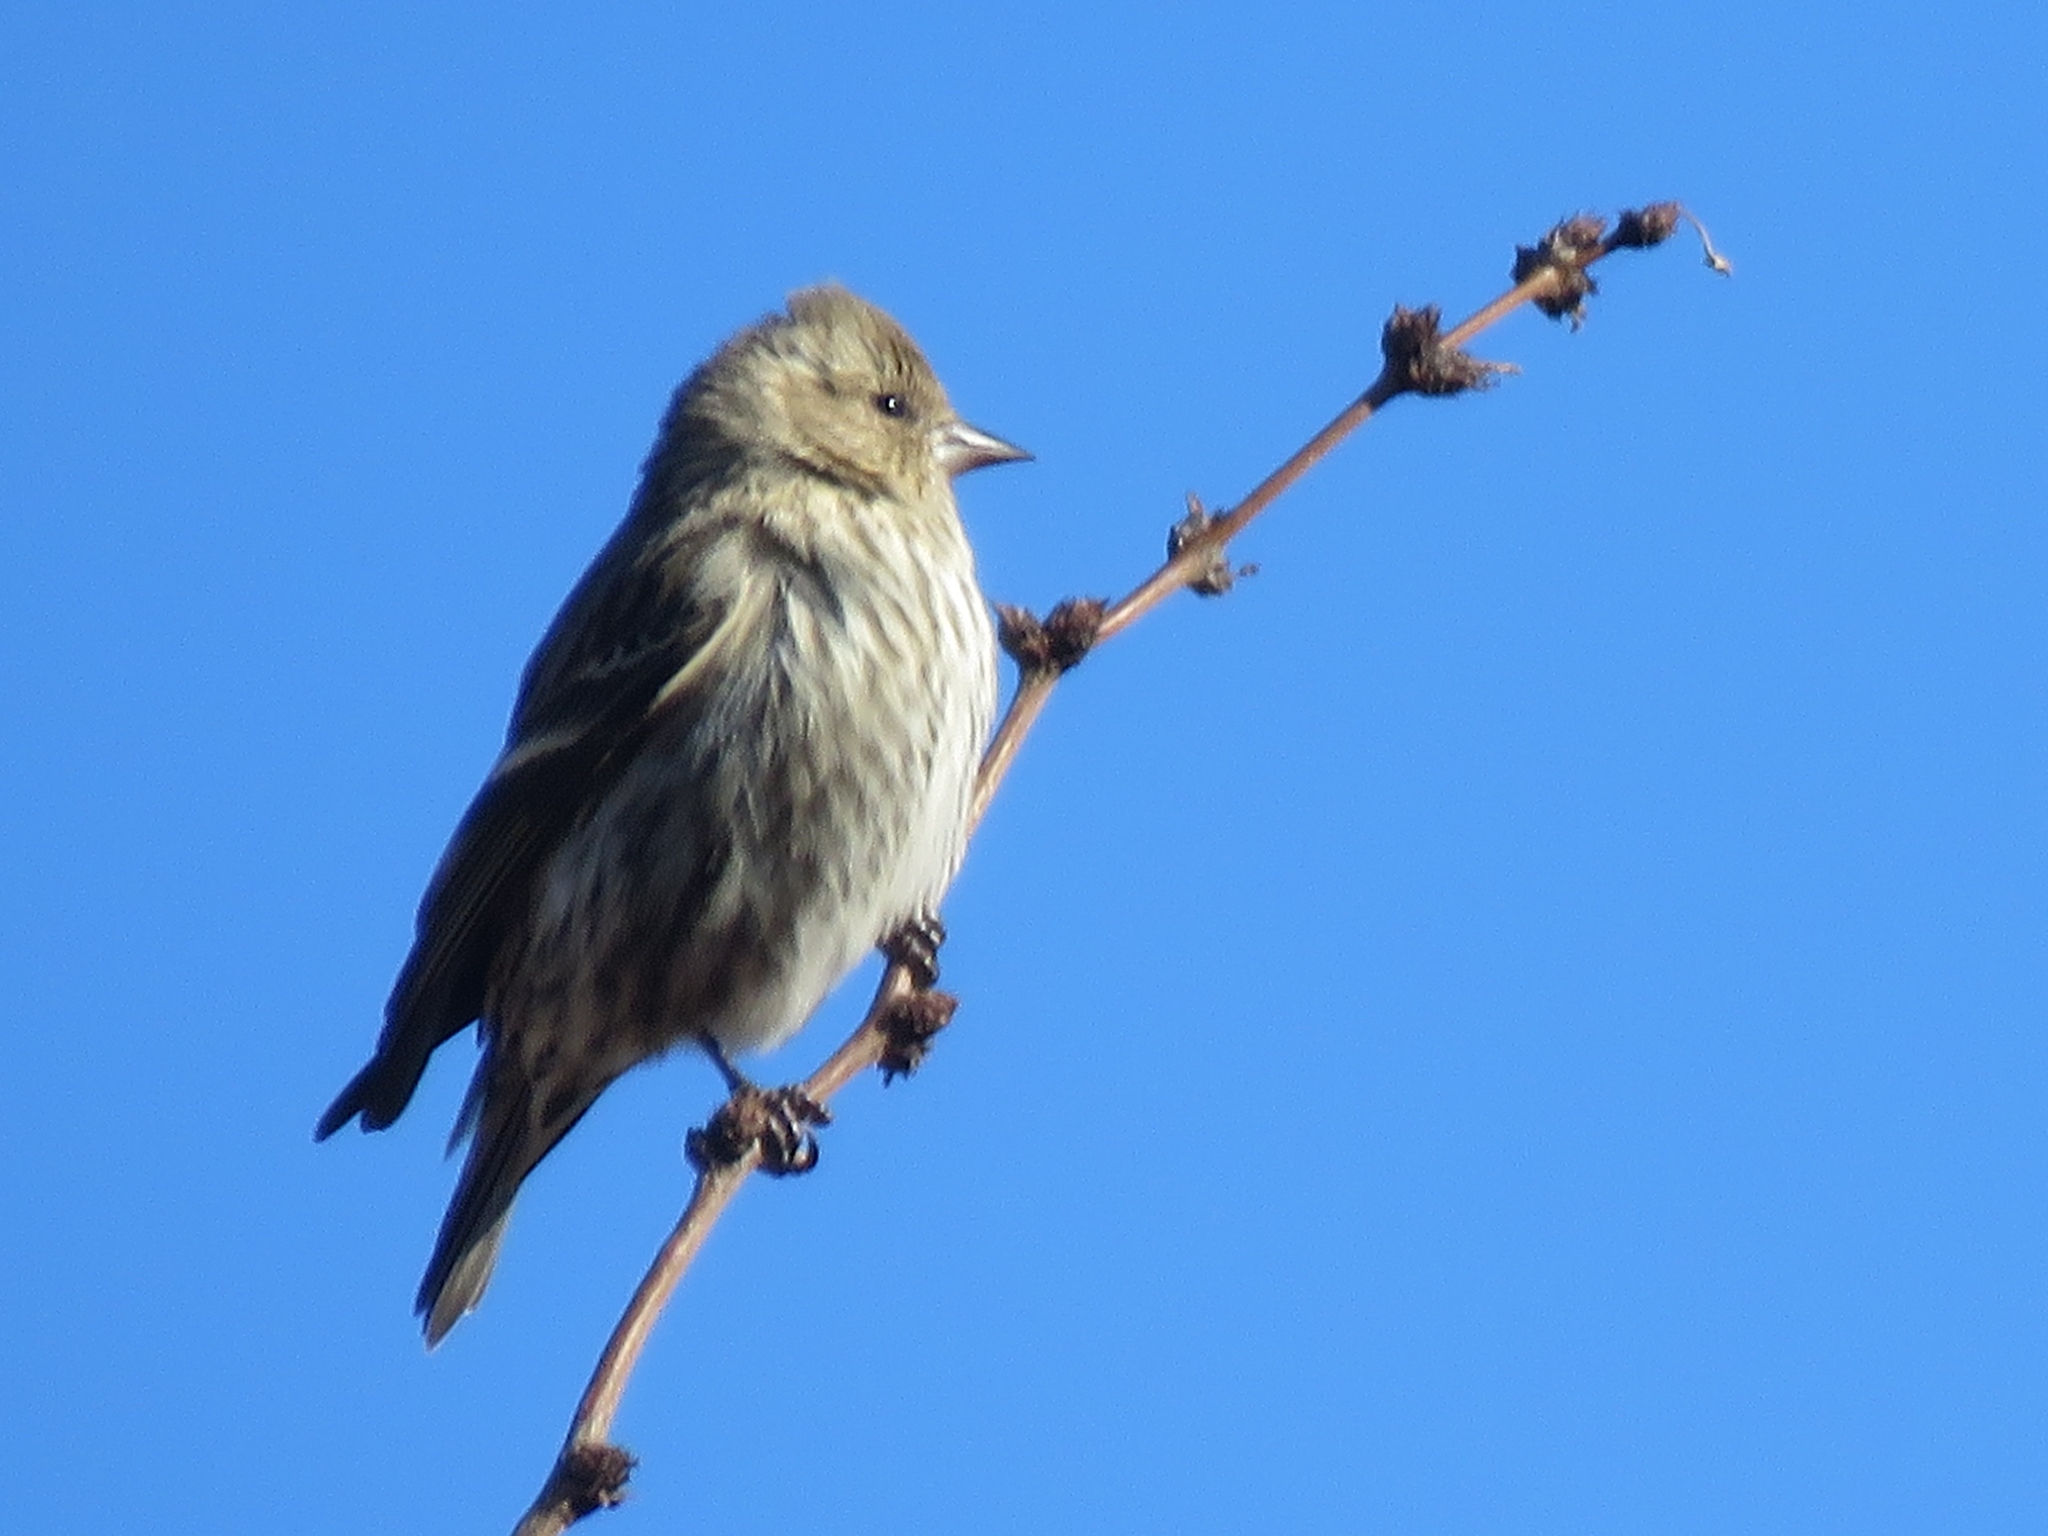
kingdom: Animalia
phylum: Chordata
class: Aves
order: Passeriformes
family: Fringillidae
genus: Spinus
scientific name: Spinus pinus
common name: Pine siskin
